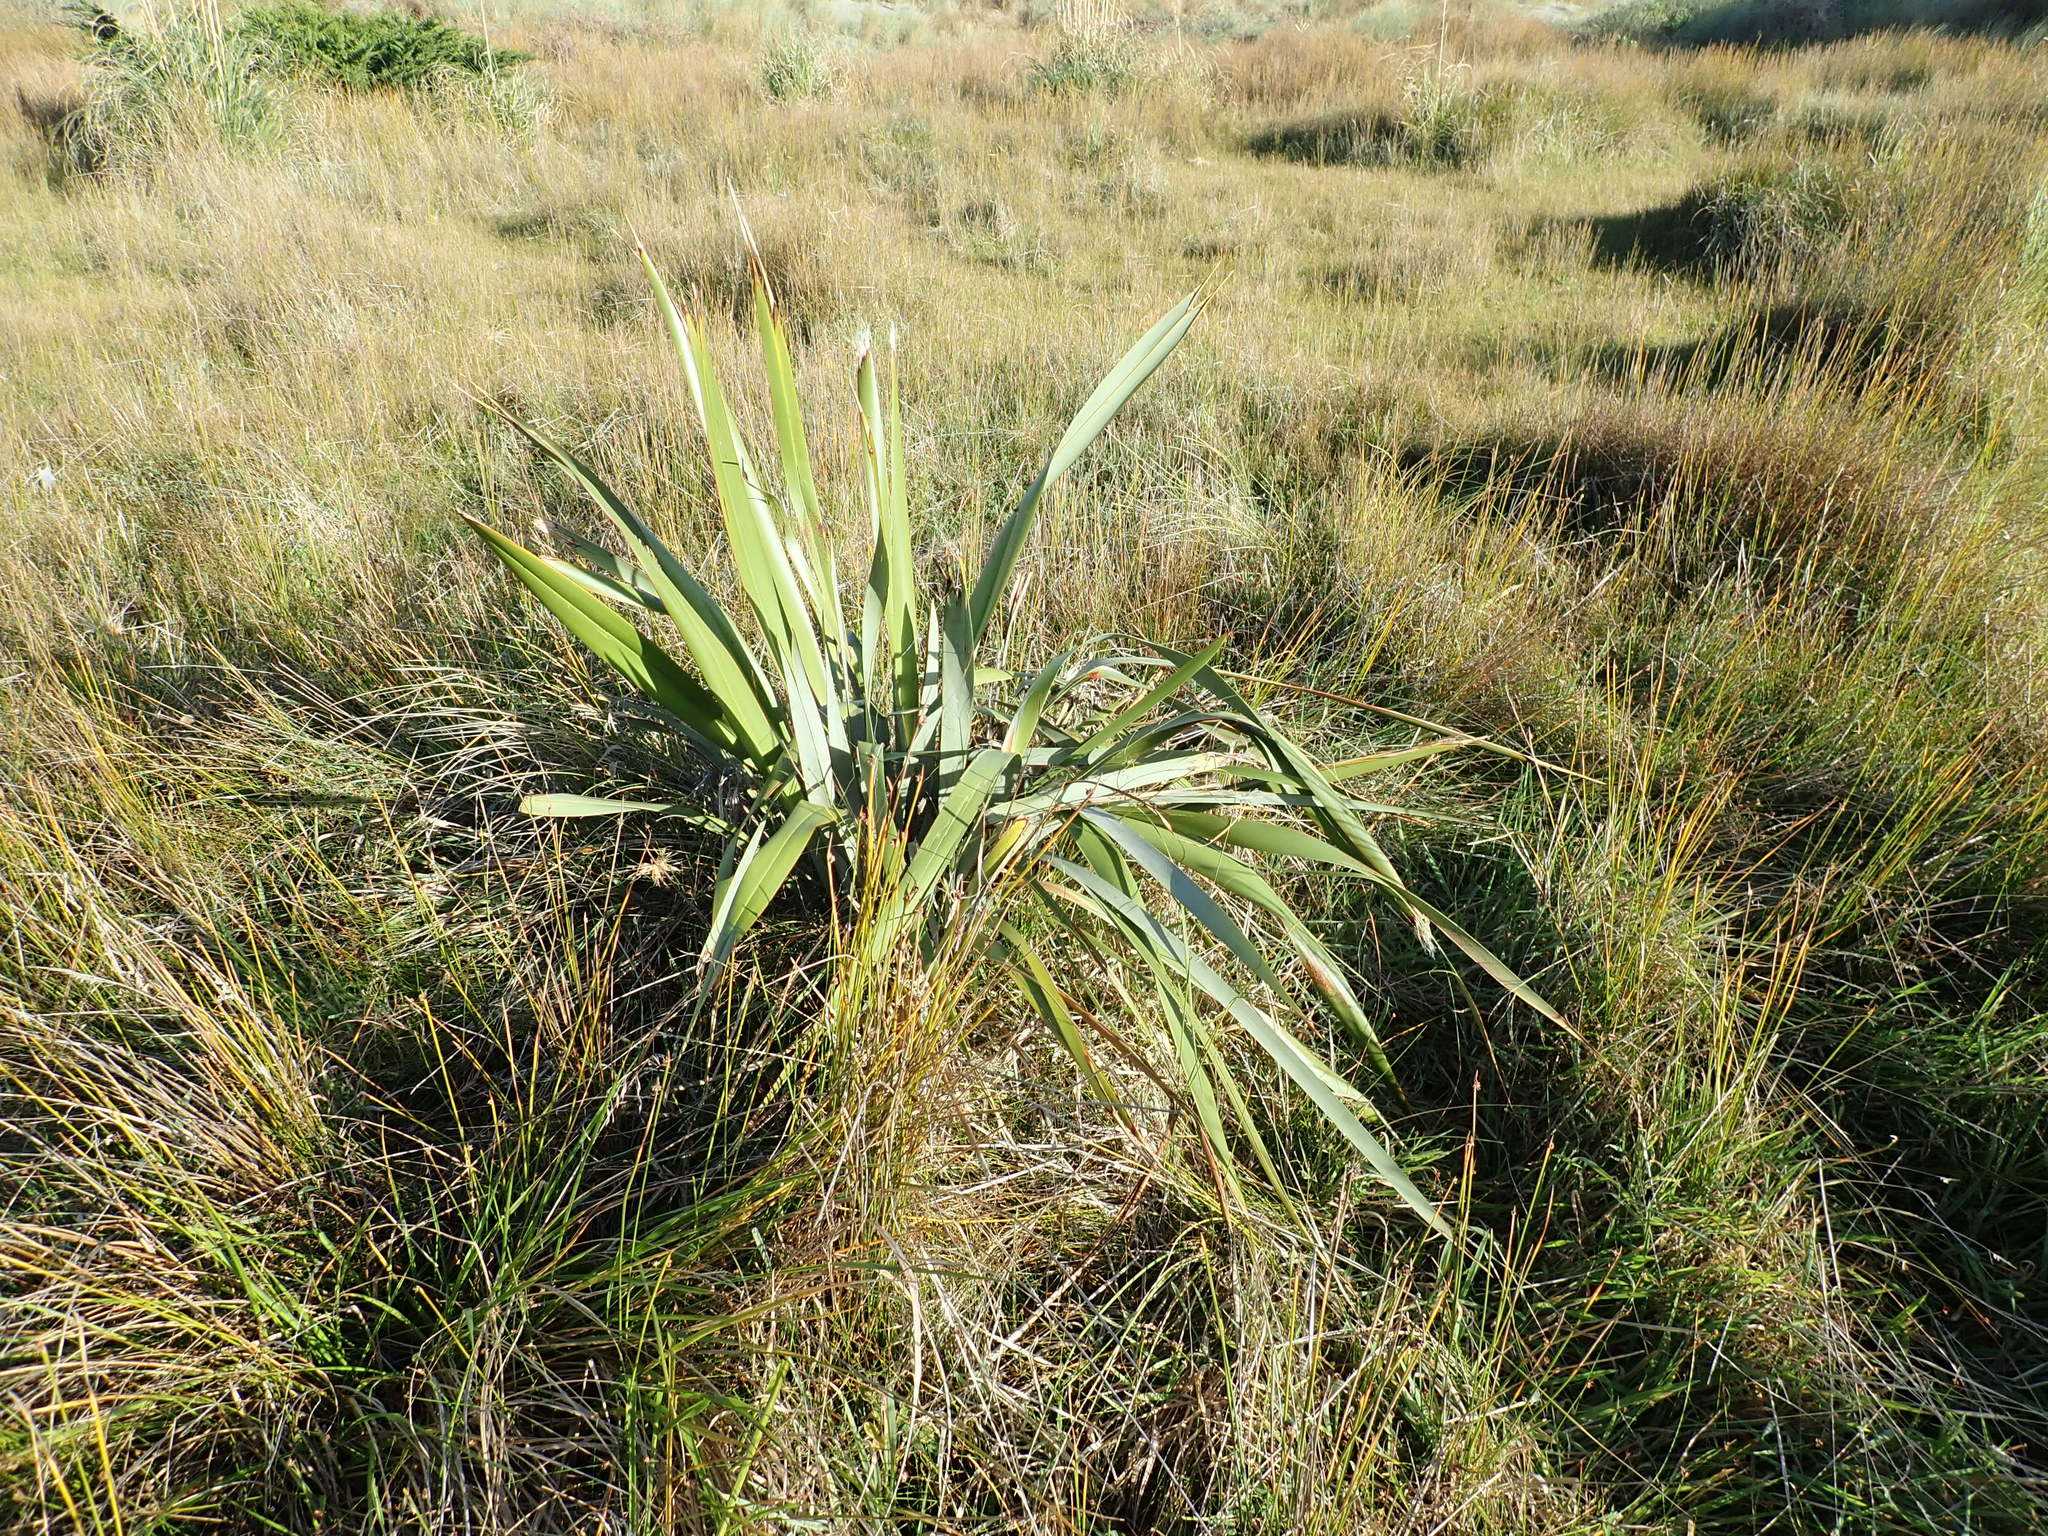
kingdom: Plantae
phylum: Tracheophyta
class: Liliopsida
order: Asparagales
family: Asphodelaceae
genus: Phormium
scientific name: Phormium tenax
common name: New zealand flax
